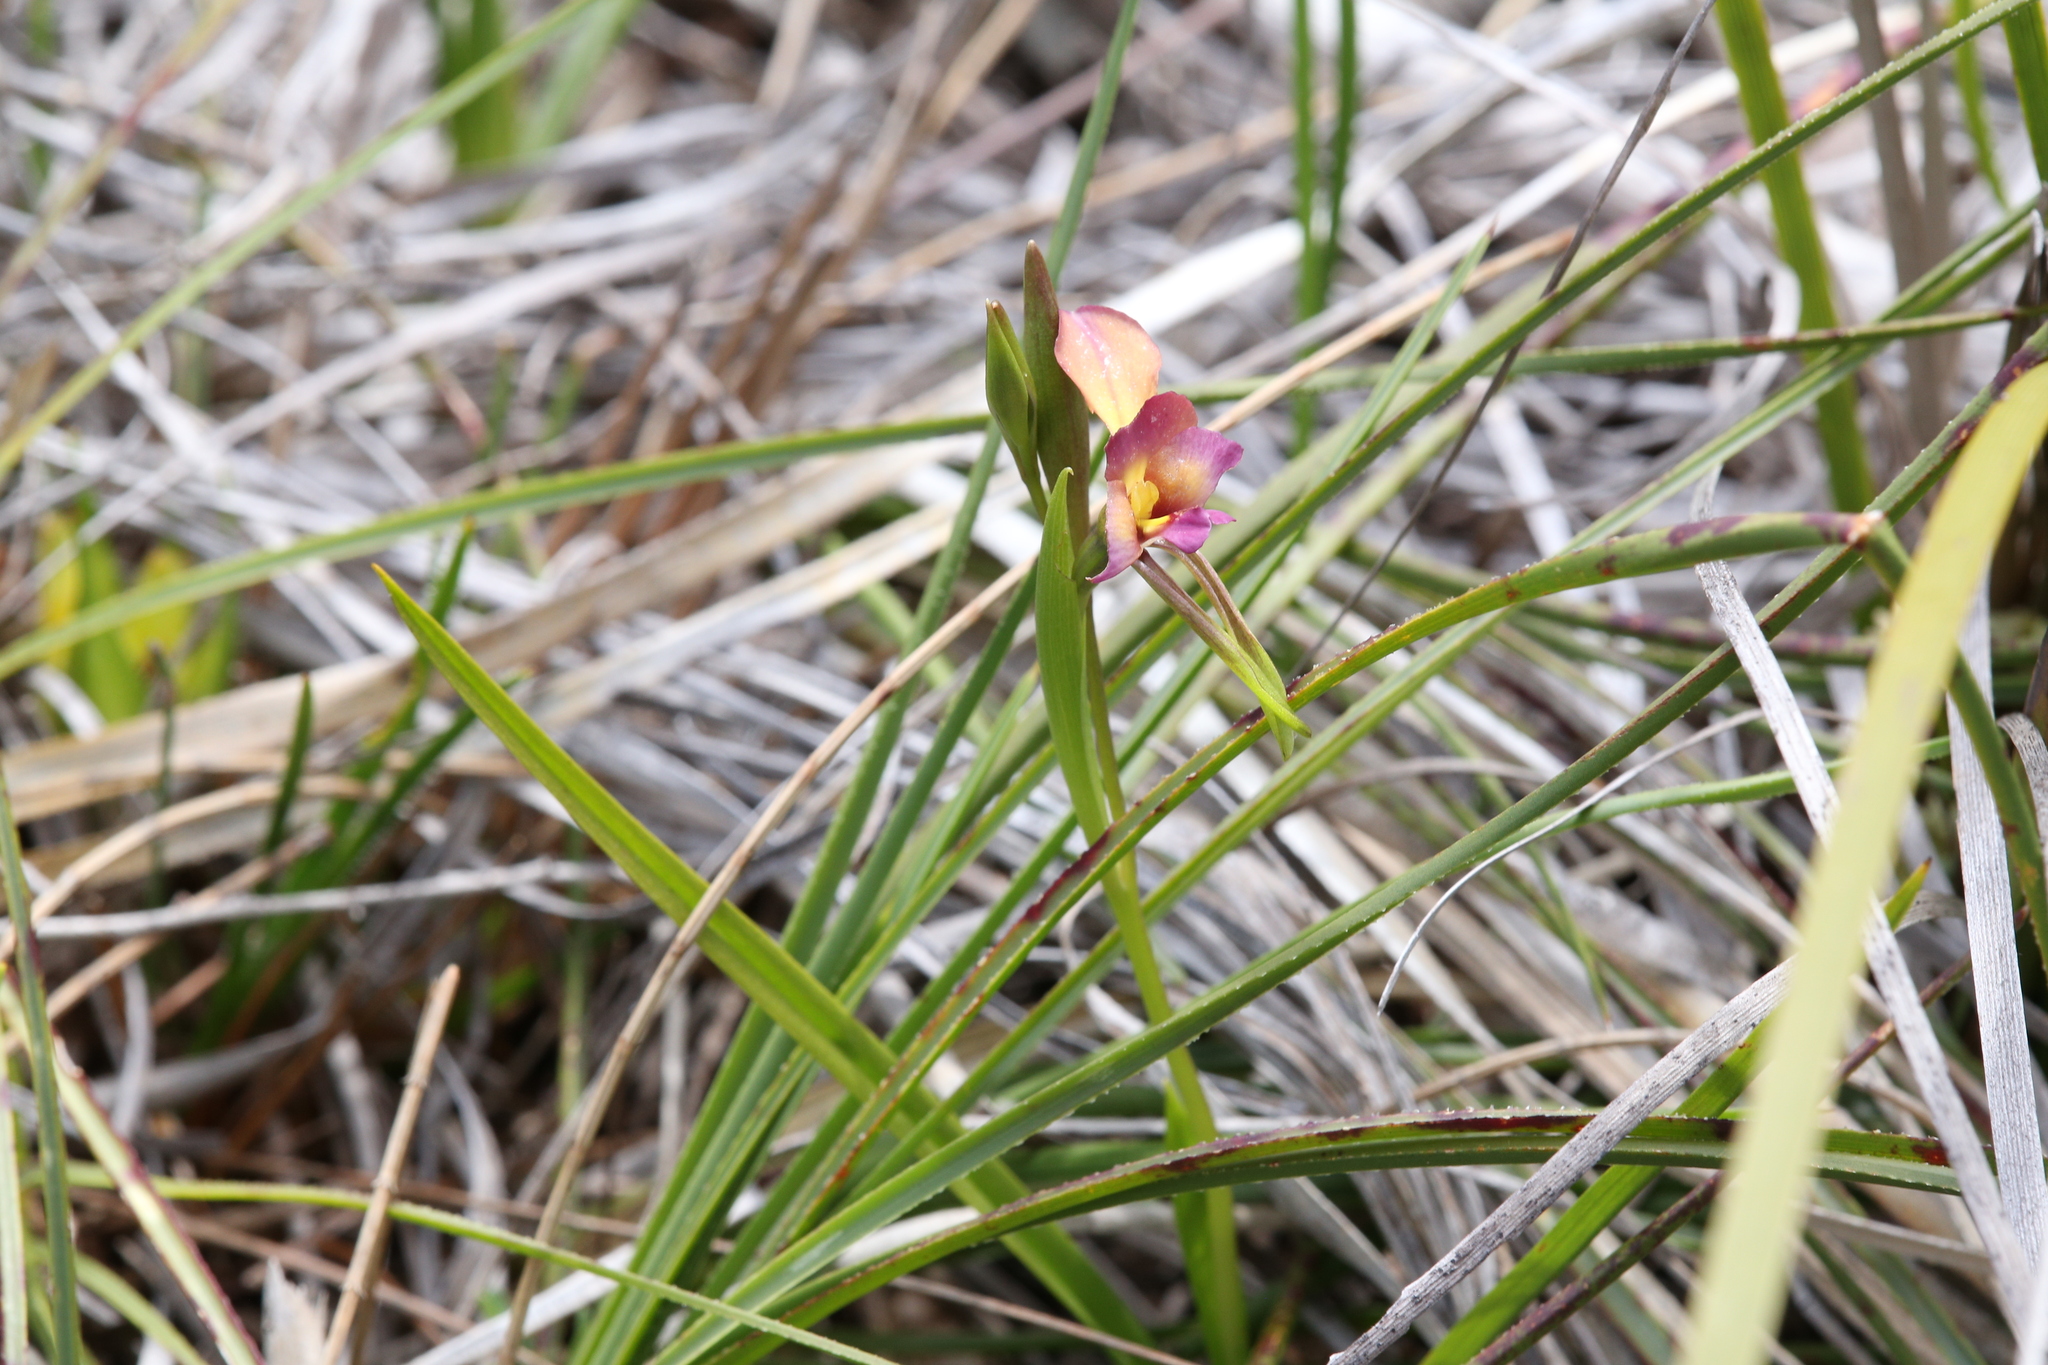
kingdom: Plantae
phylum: Tracheophyta
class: Liliopsida
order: Asparagales
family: Orchidaceae
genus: Diuris
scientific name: Diuris longifolia
